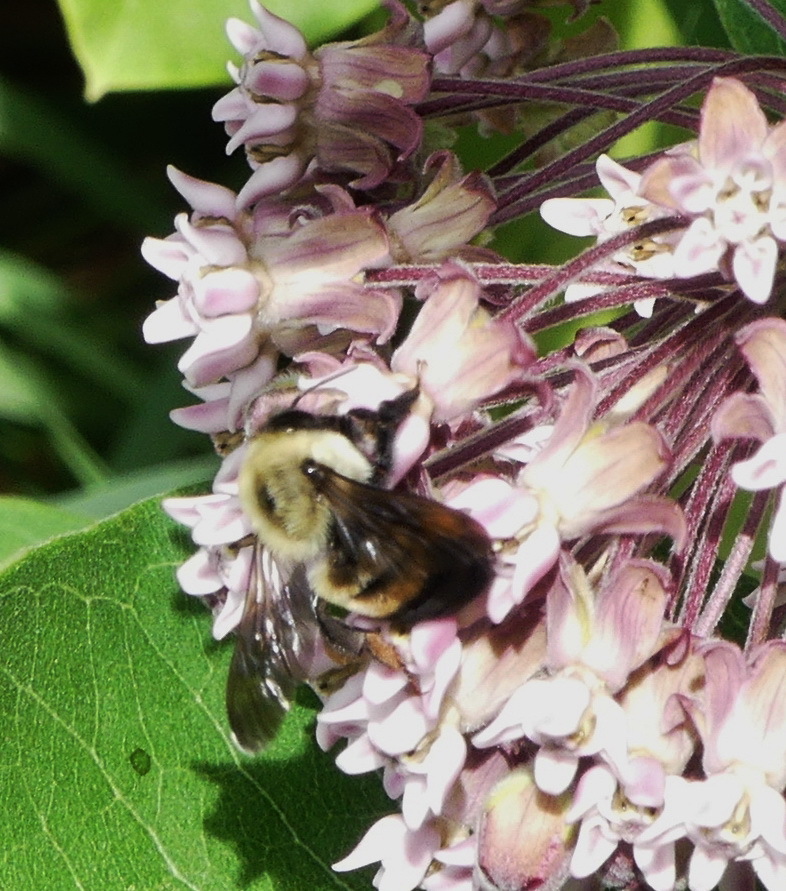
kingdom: Animalia
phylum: Arthropoda
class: Insecta
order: Hymenoptera
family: Apidae
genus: Bombus
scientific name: Bombus griseocollis
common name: Brown-belted bumble bee
